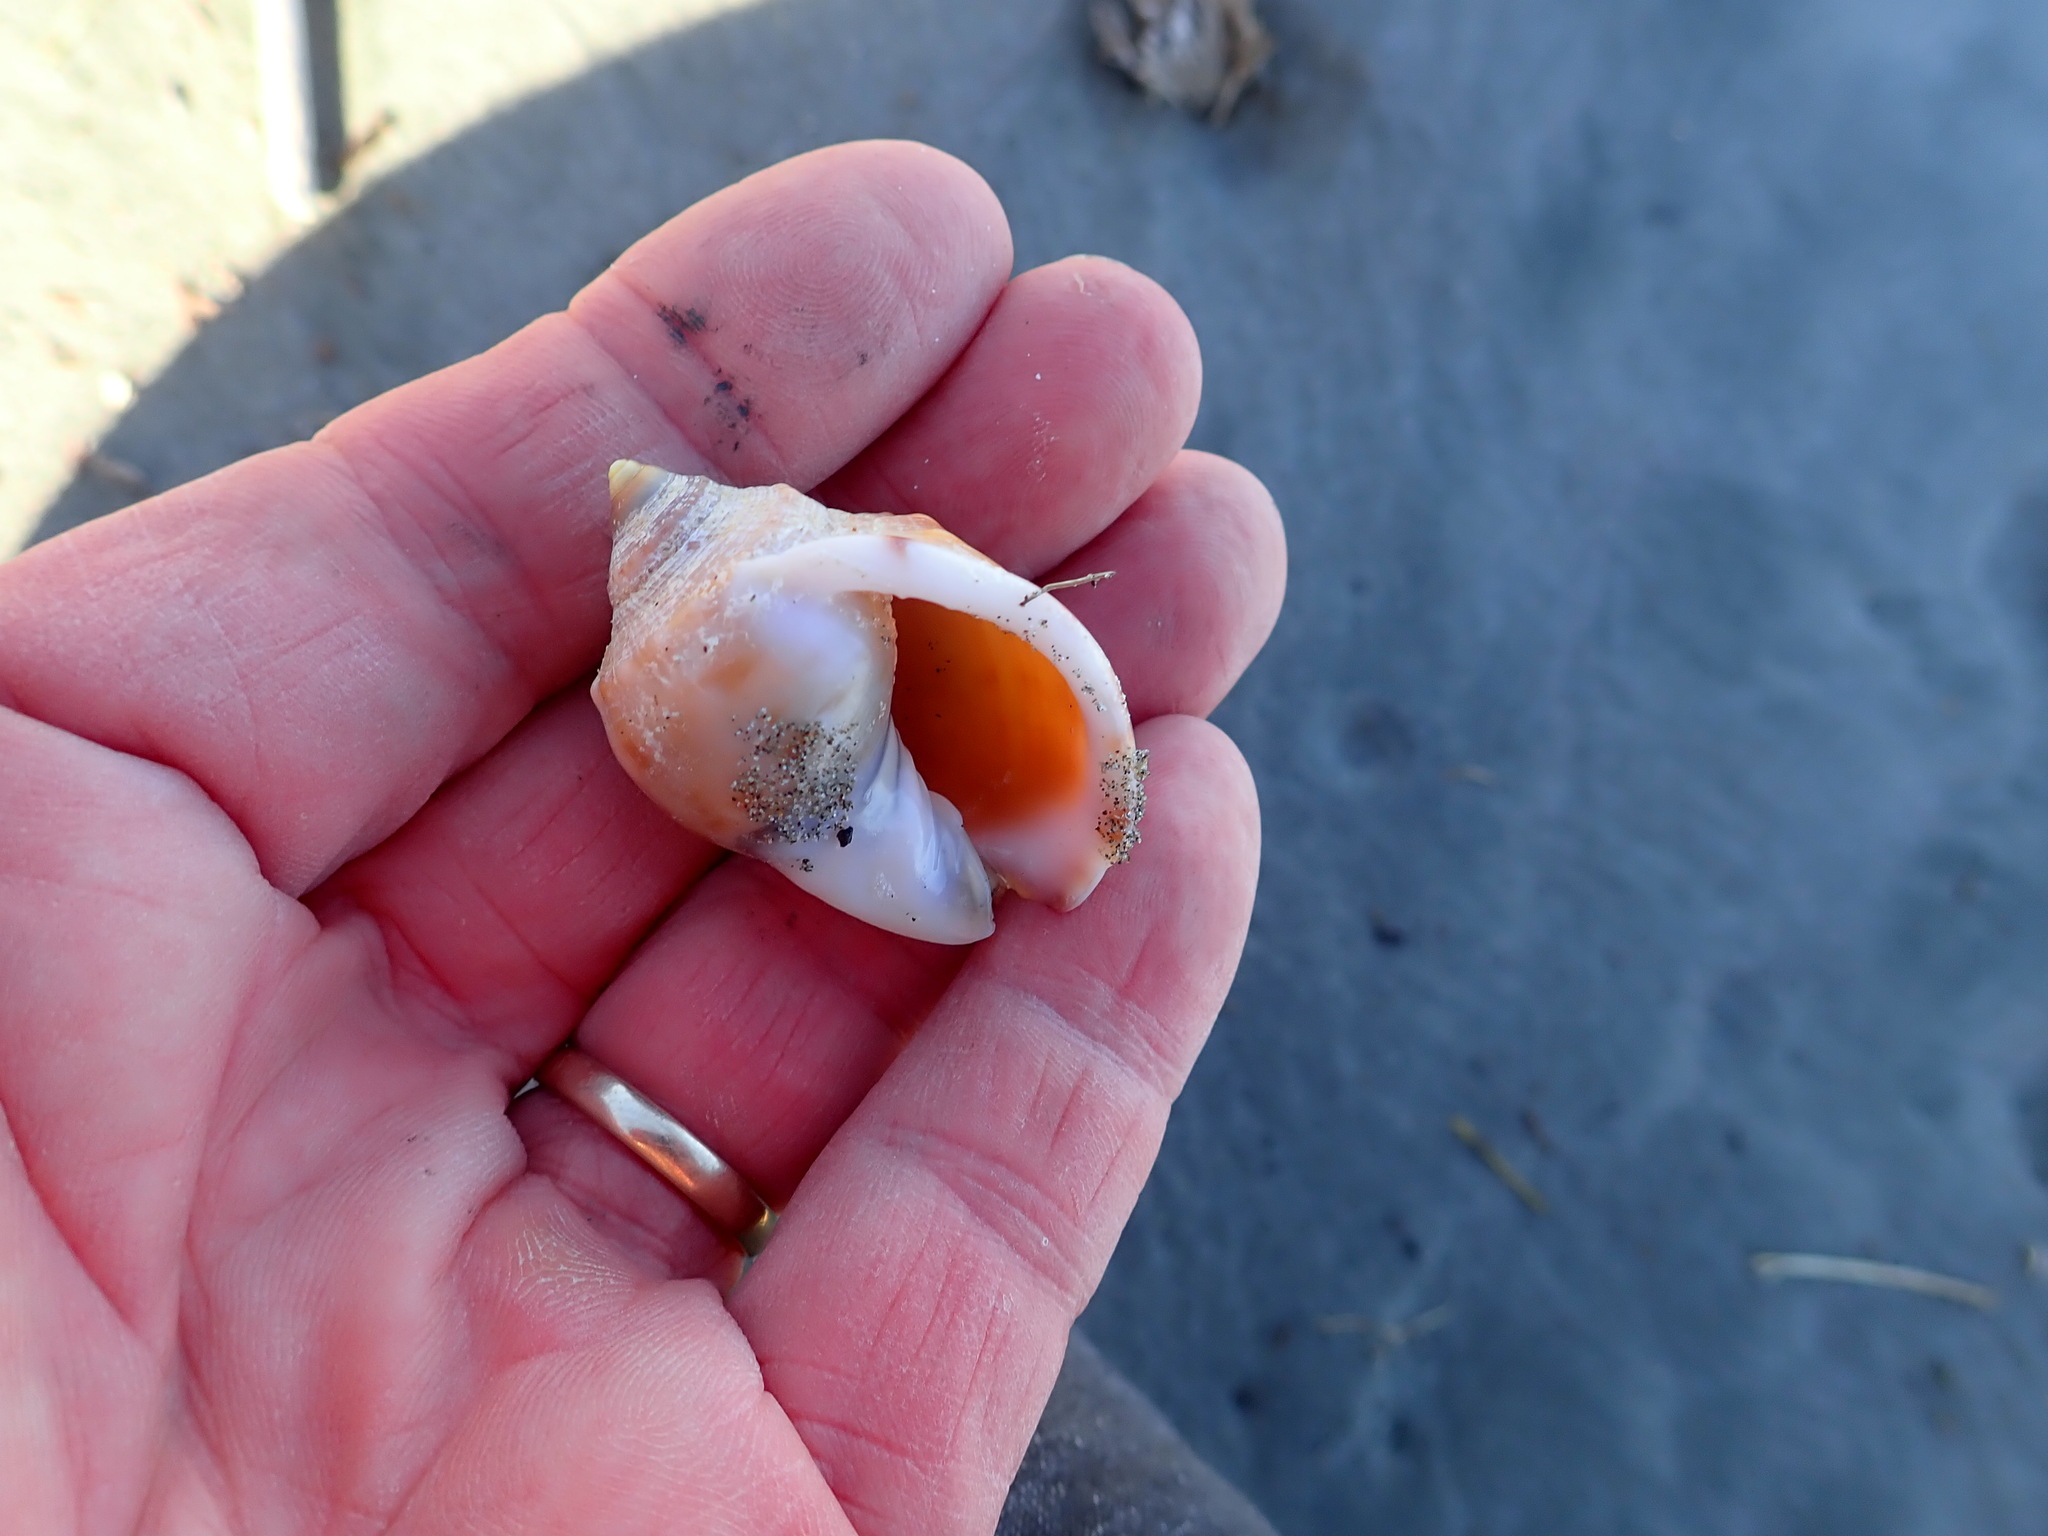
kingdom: Animalia
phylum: Mollusca
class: Gastropoda
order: Littorinimorpha
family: Cassidae
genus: Semicassis
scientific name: Semicassis pyrum
